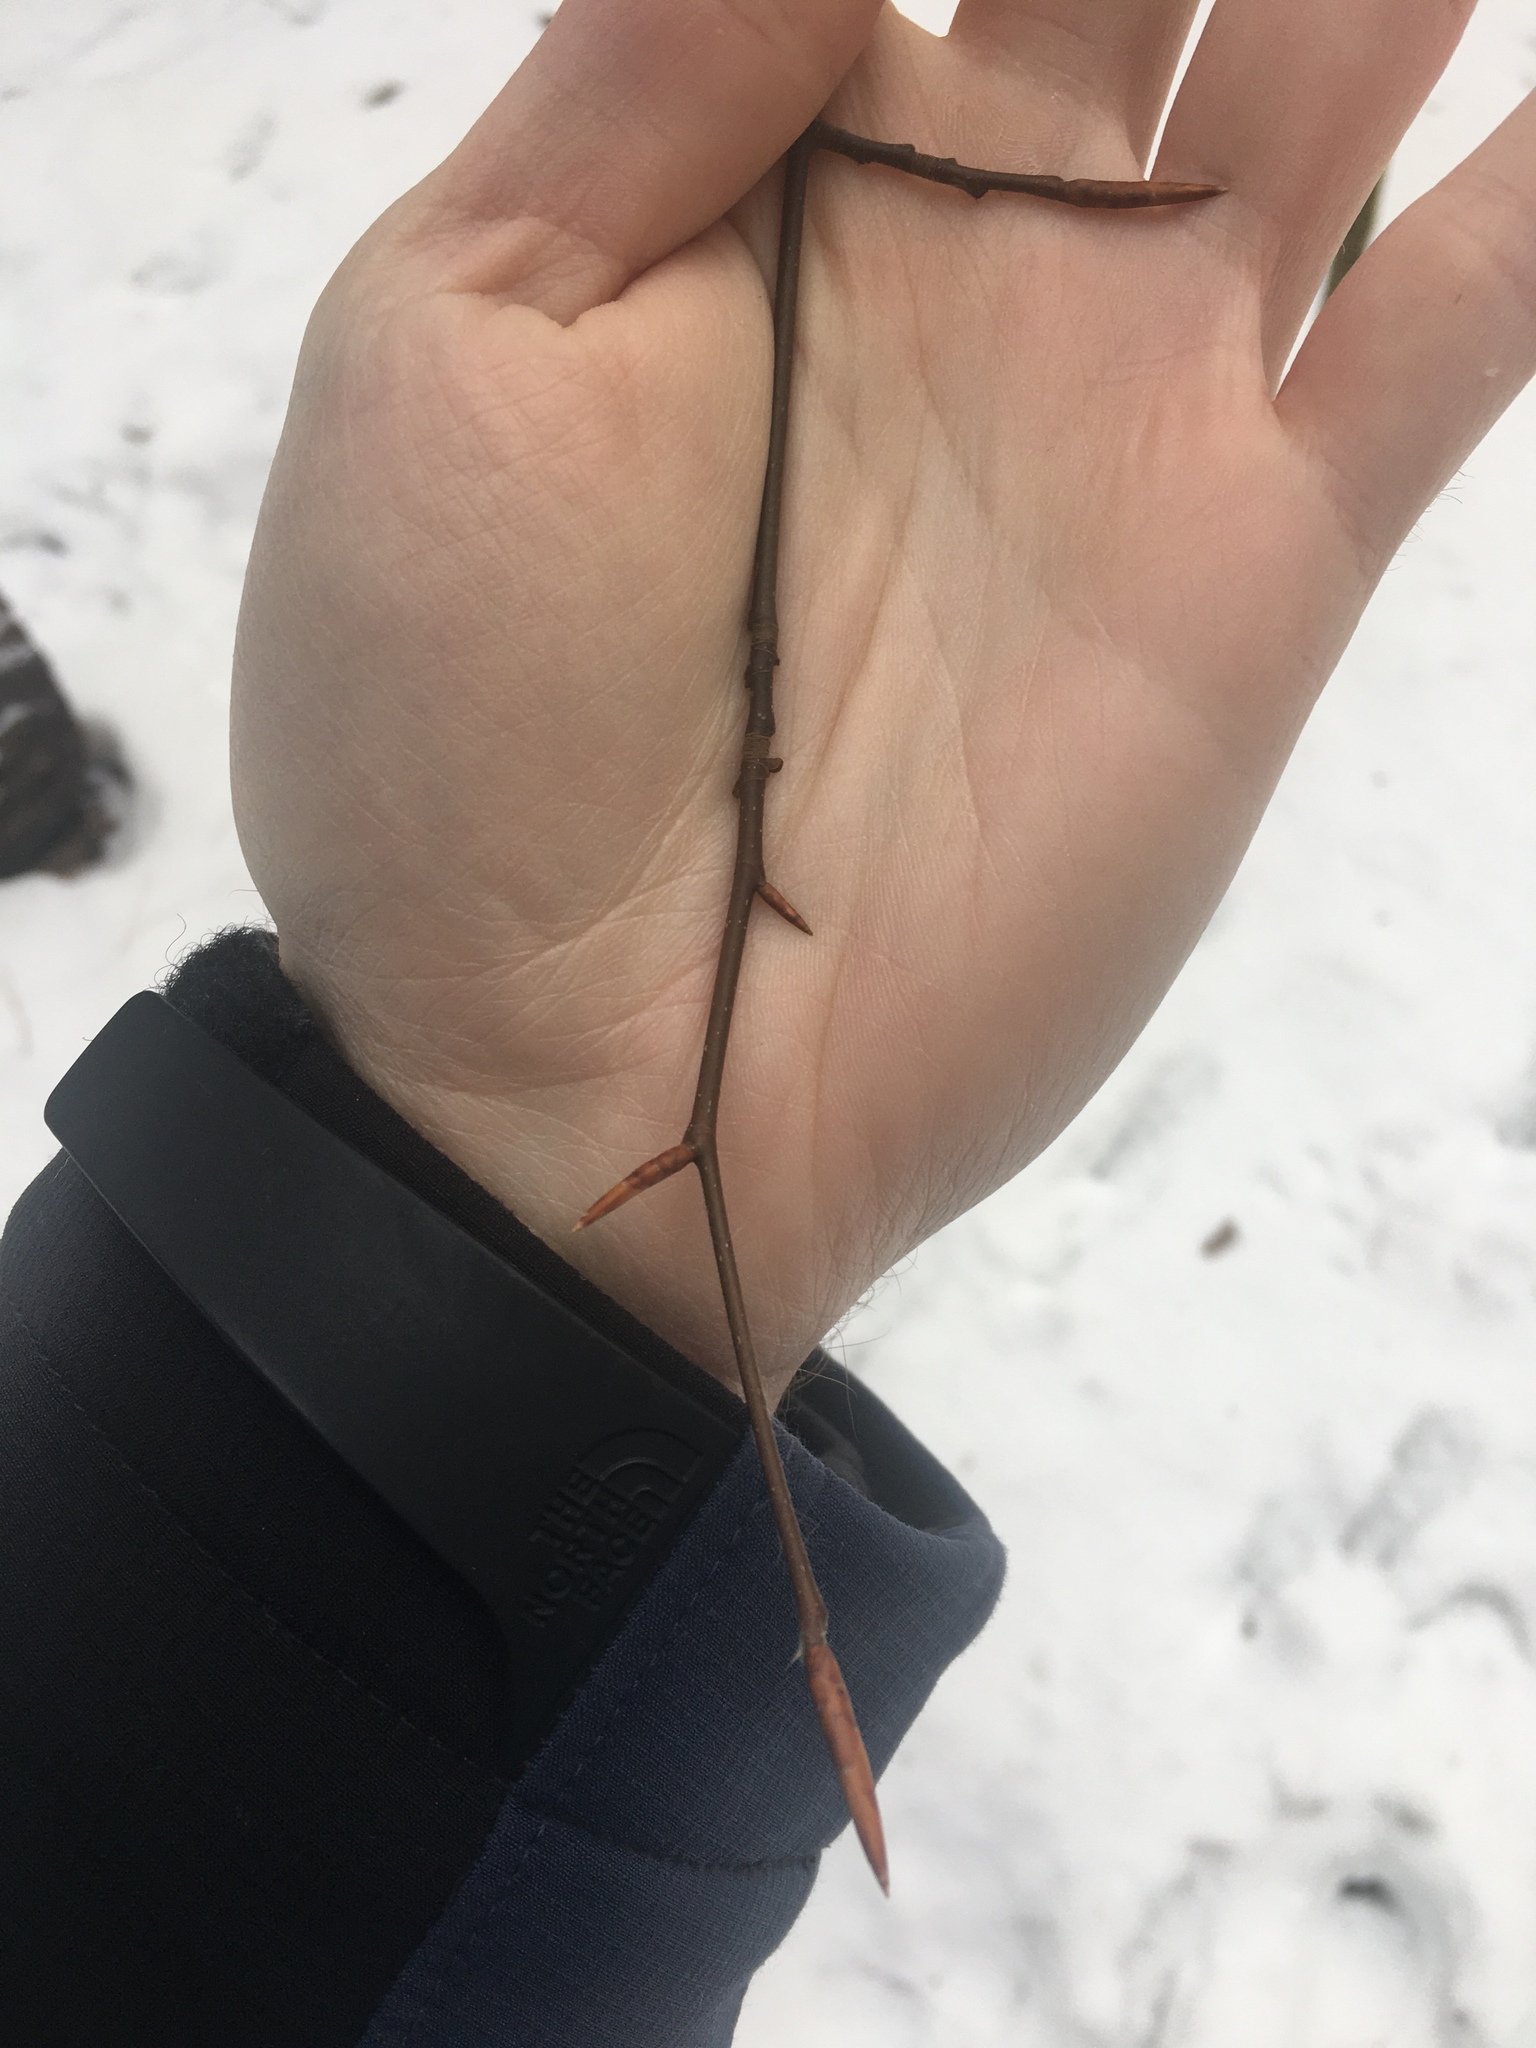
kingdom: Plantae
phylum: Tracheophyta
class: Magnoliopsida
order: Fagales
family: Fagaceae
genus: Fagus
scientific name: Fagus grandifolia
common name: American beech
